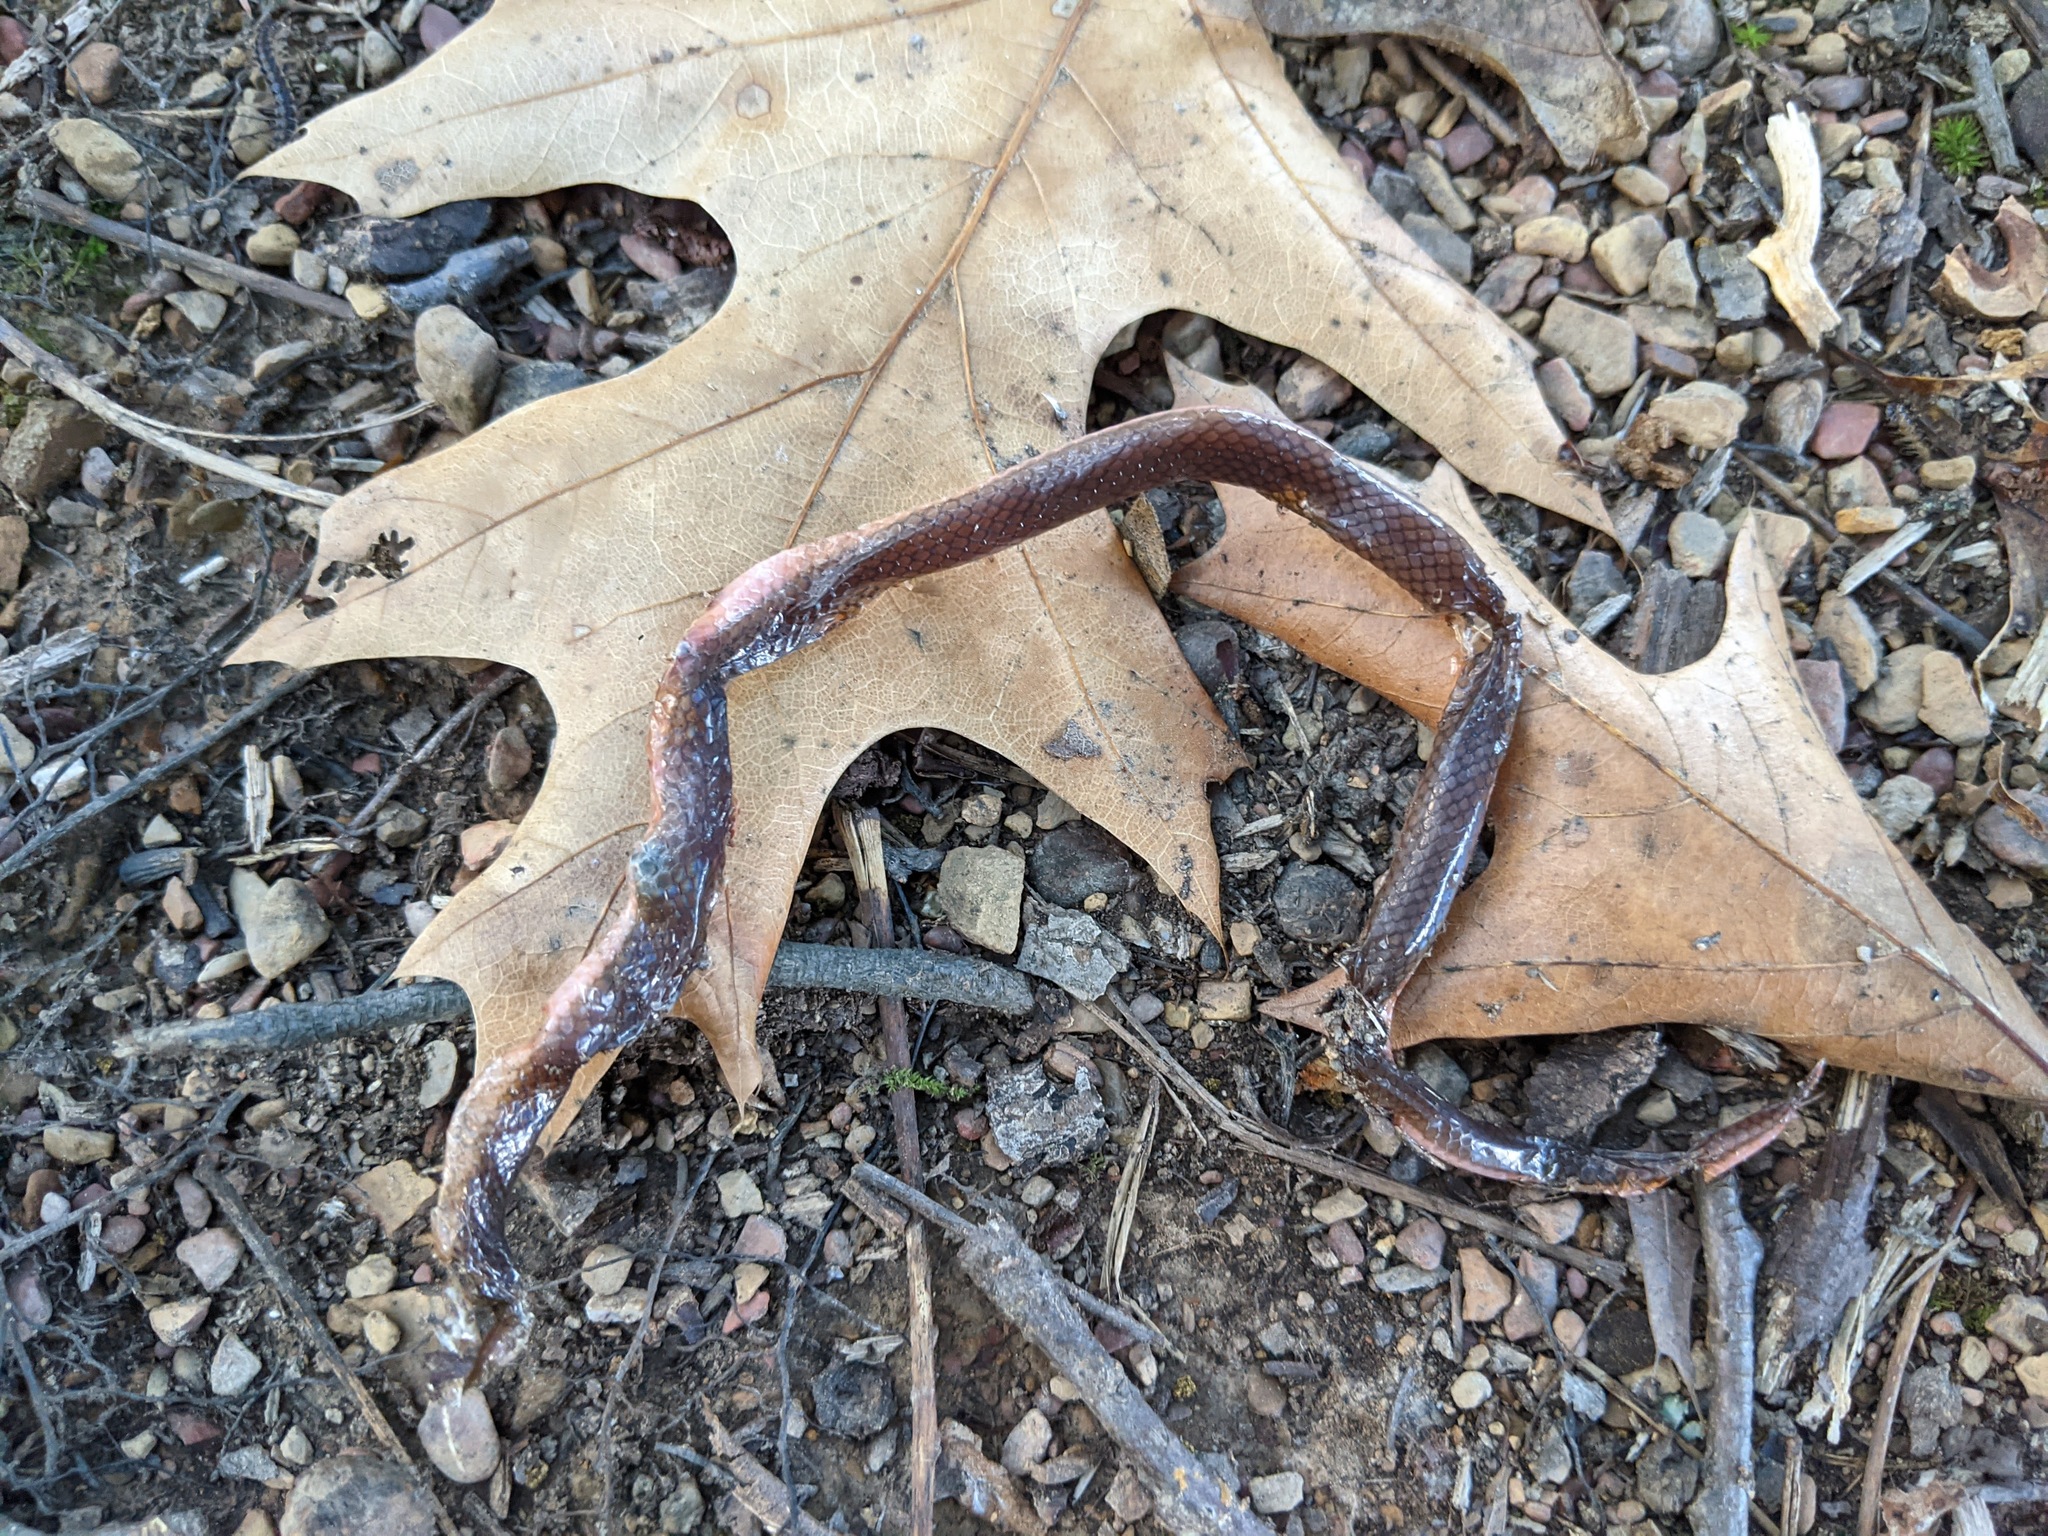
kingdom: Animalia
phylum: Chordata
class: Squamata
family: Colubridae
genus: Carphophis
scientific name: Carphophis amoenus
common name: Eastern worm snake
